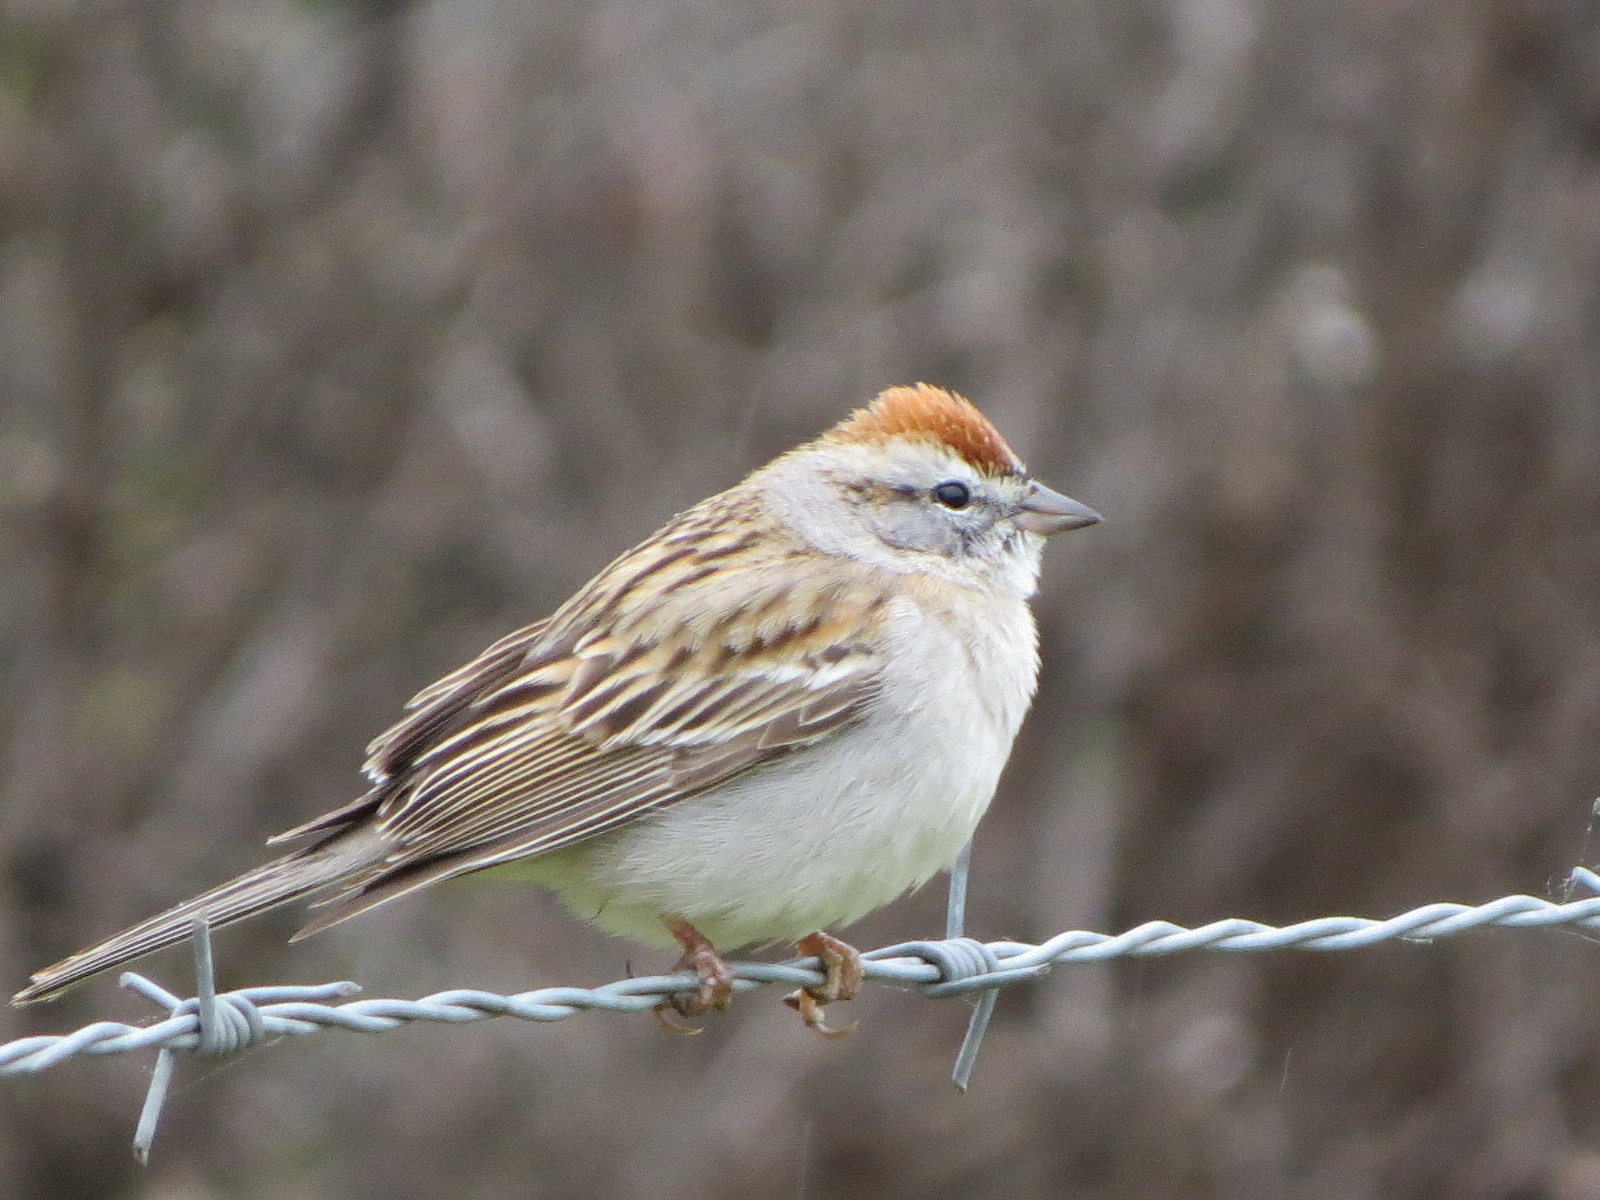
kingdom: Animalia
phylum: Chordata
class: Aves
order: Passeriformes
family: Passerellidae
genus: Spizella
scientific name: Spizella passerina
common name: Chipping sparrow
